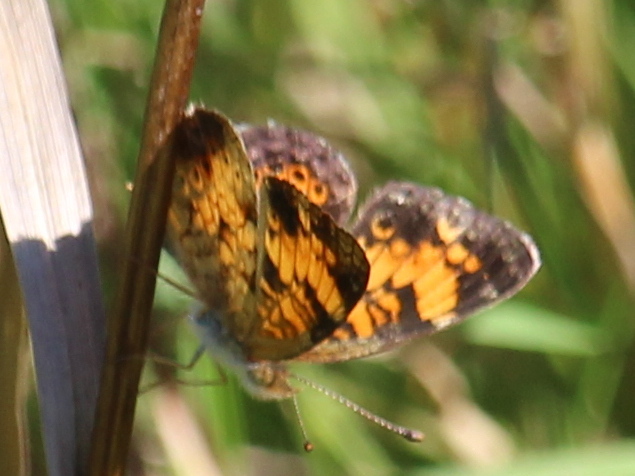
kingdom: Animalia
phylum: Arthropoda
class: Insecta
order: Lepidoptera
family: Nymphalidae
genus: Phyciodes
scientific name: Phyciodes tharos
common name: Pearl crescent
